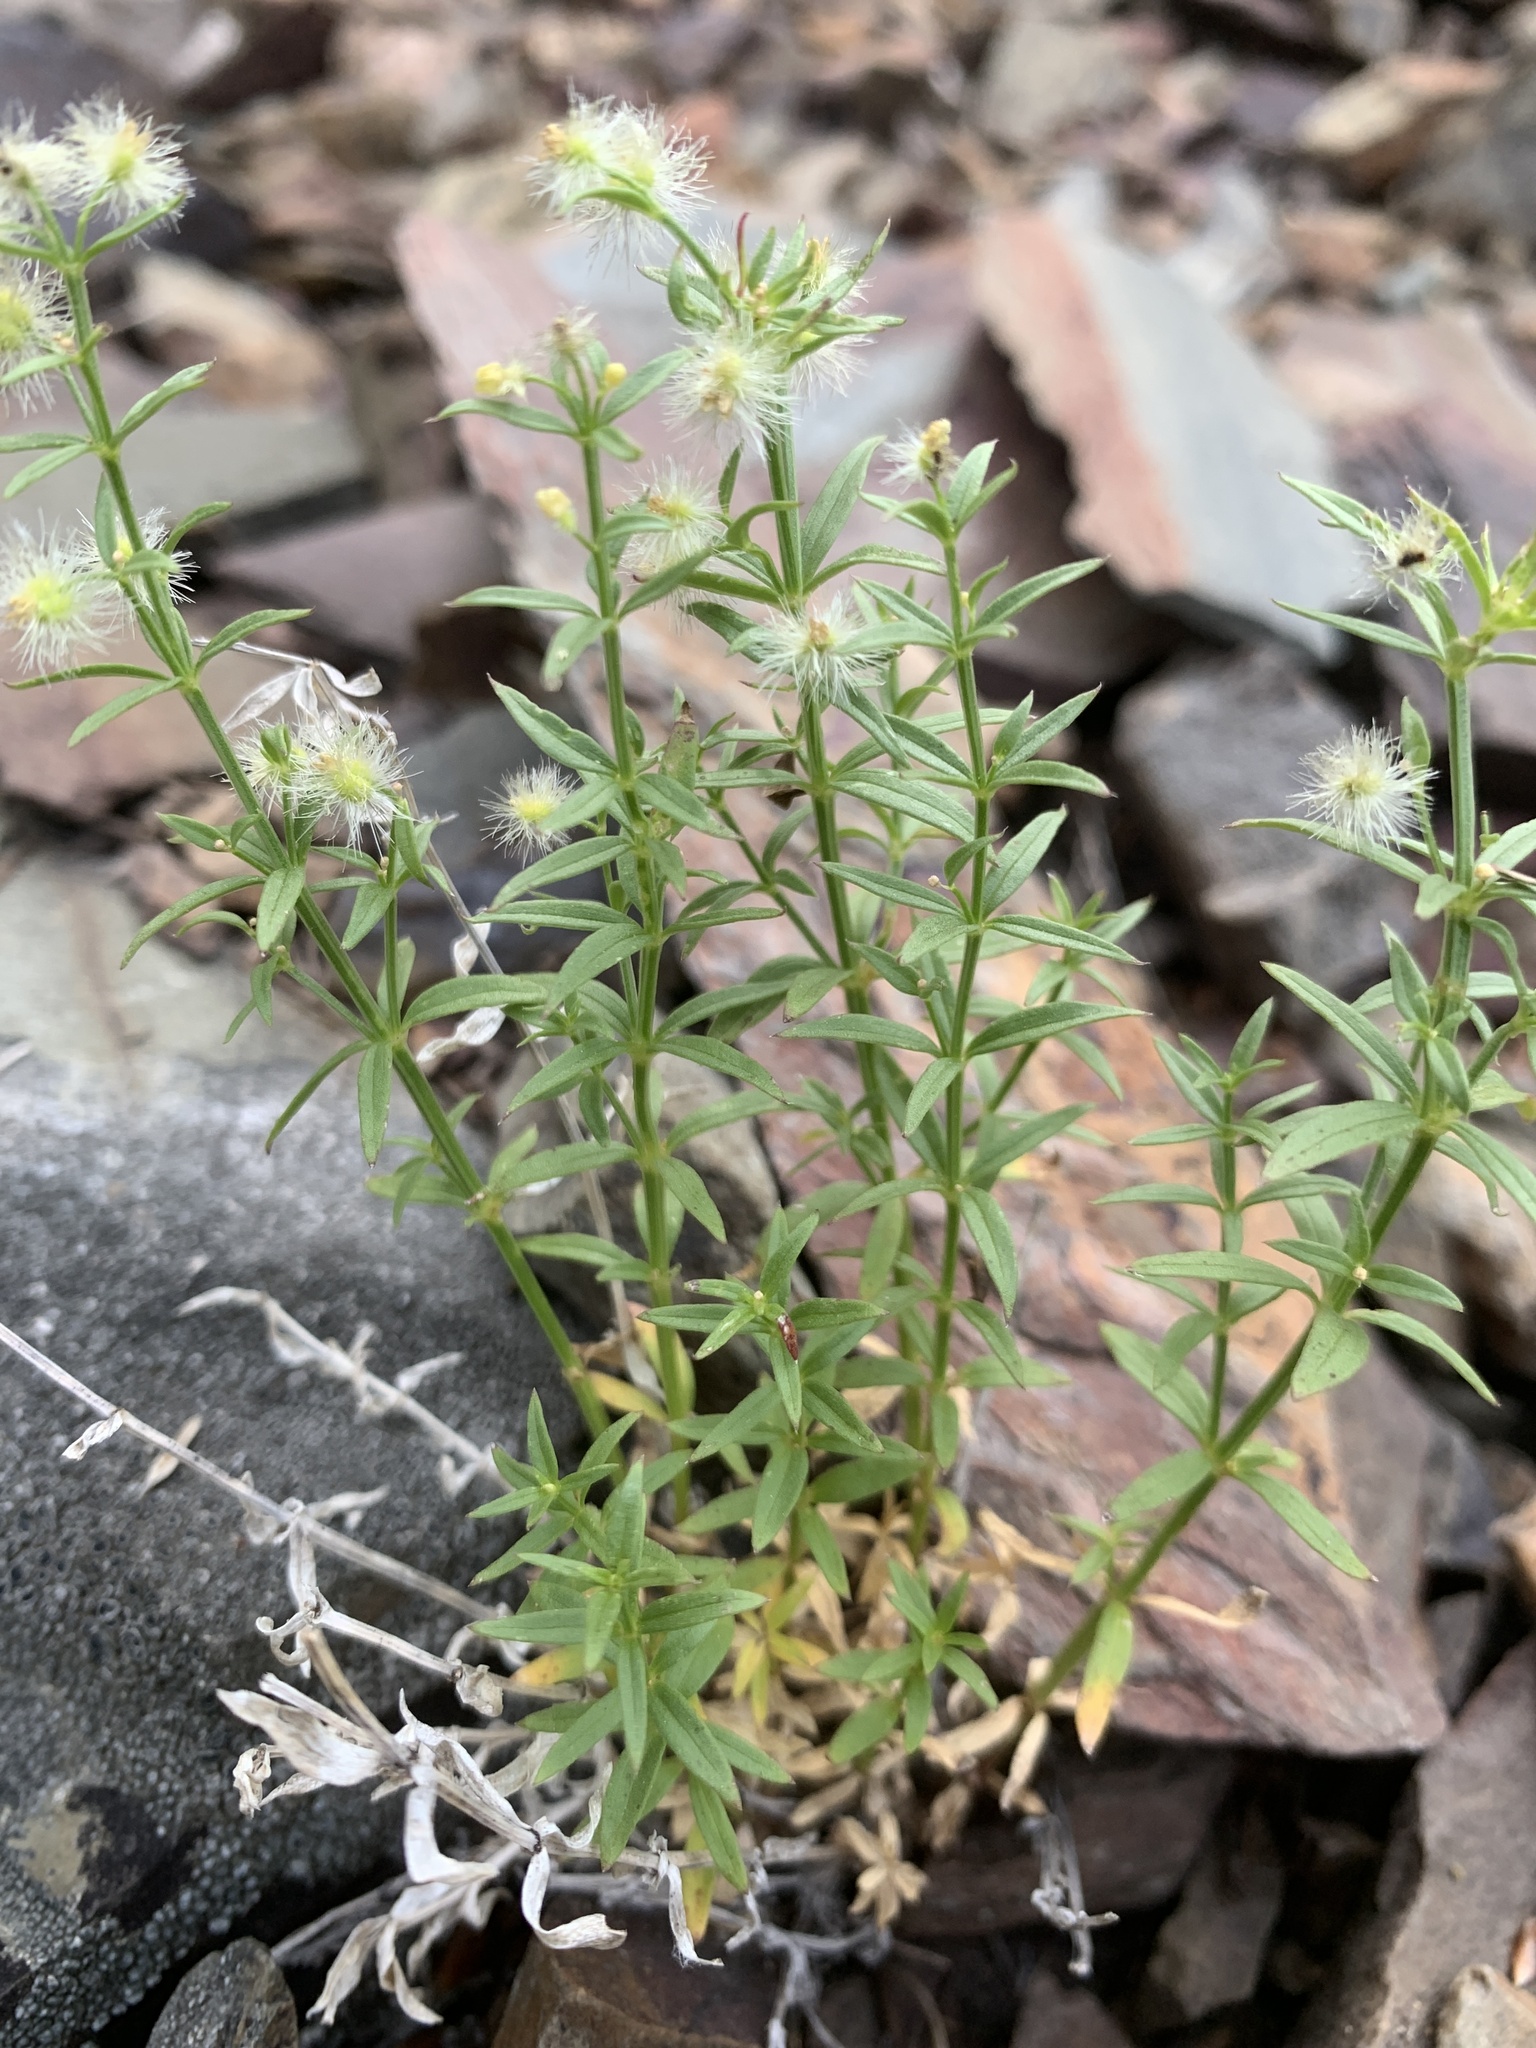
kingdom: Plantae
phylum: Tracheophyta
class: Magnoliopsida
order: Gentianales
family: Rubiaceae
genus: Galium
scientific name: Galium serpenticum
